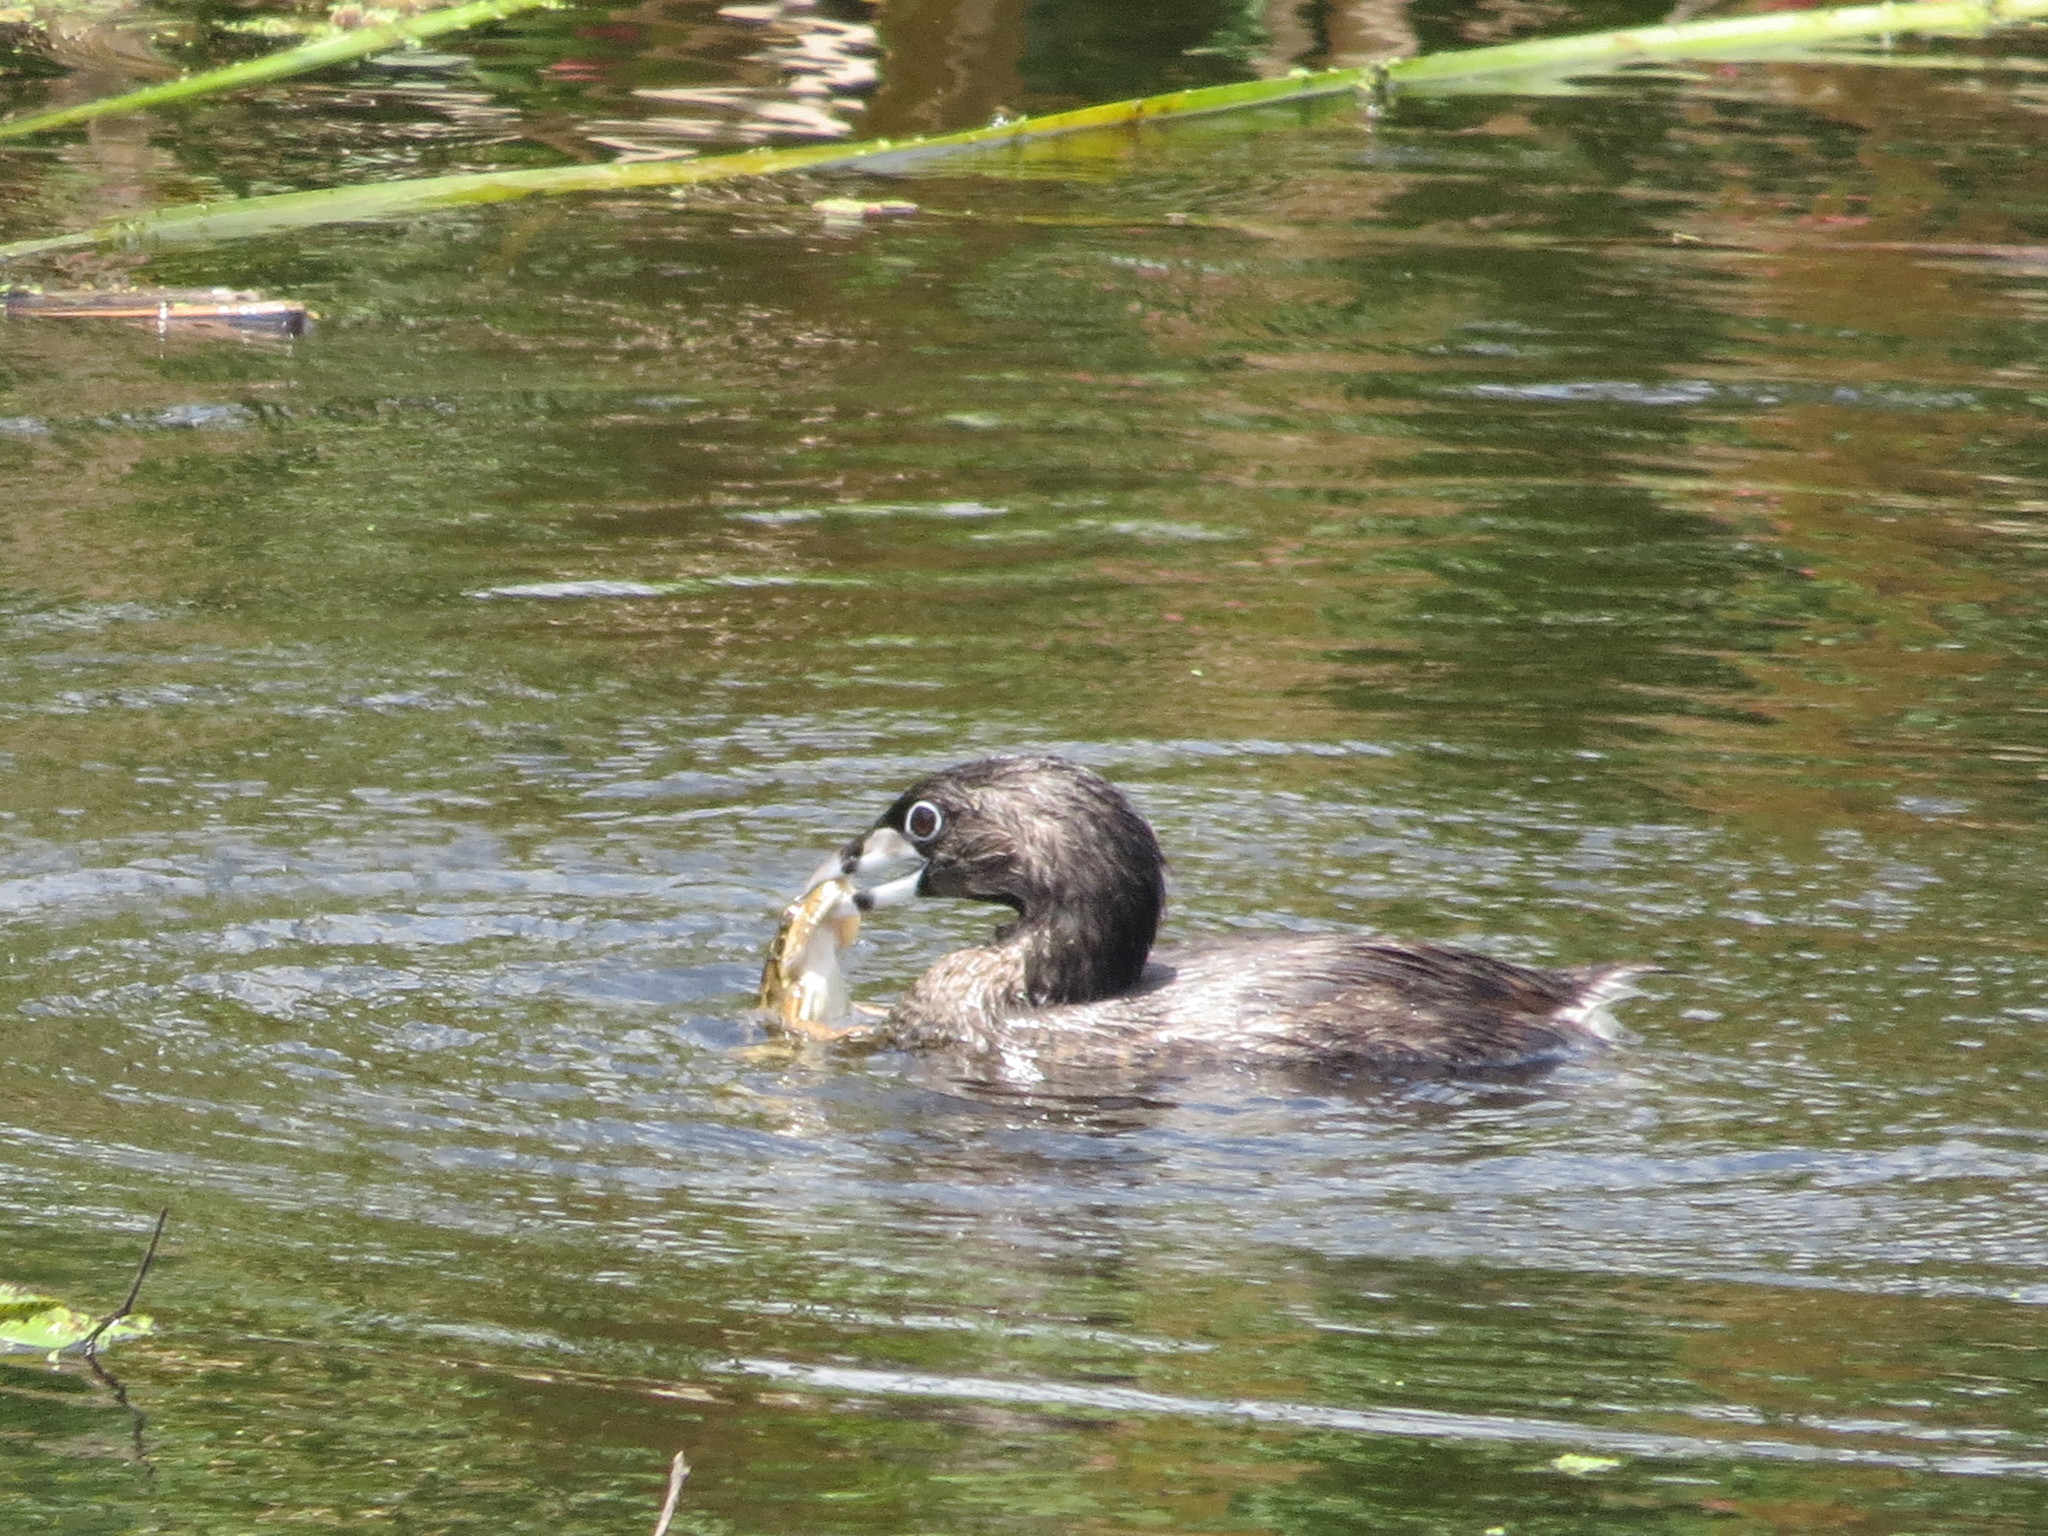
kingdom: Animalia
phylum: Chordata
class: Aves
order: Podicipediformes
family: Podicipedidae
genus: Podilymbus
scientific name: Podilymbus podiceps
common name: Pied-billed grebe
